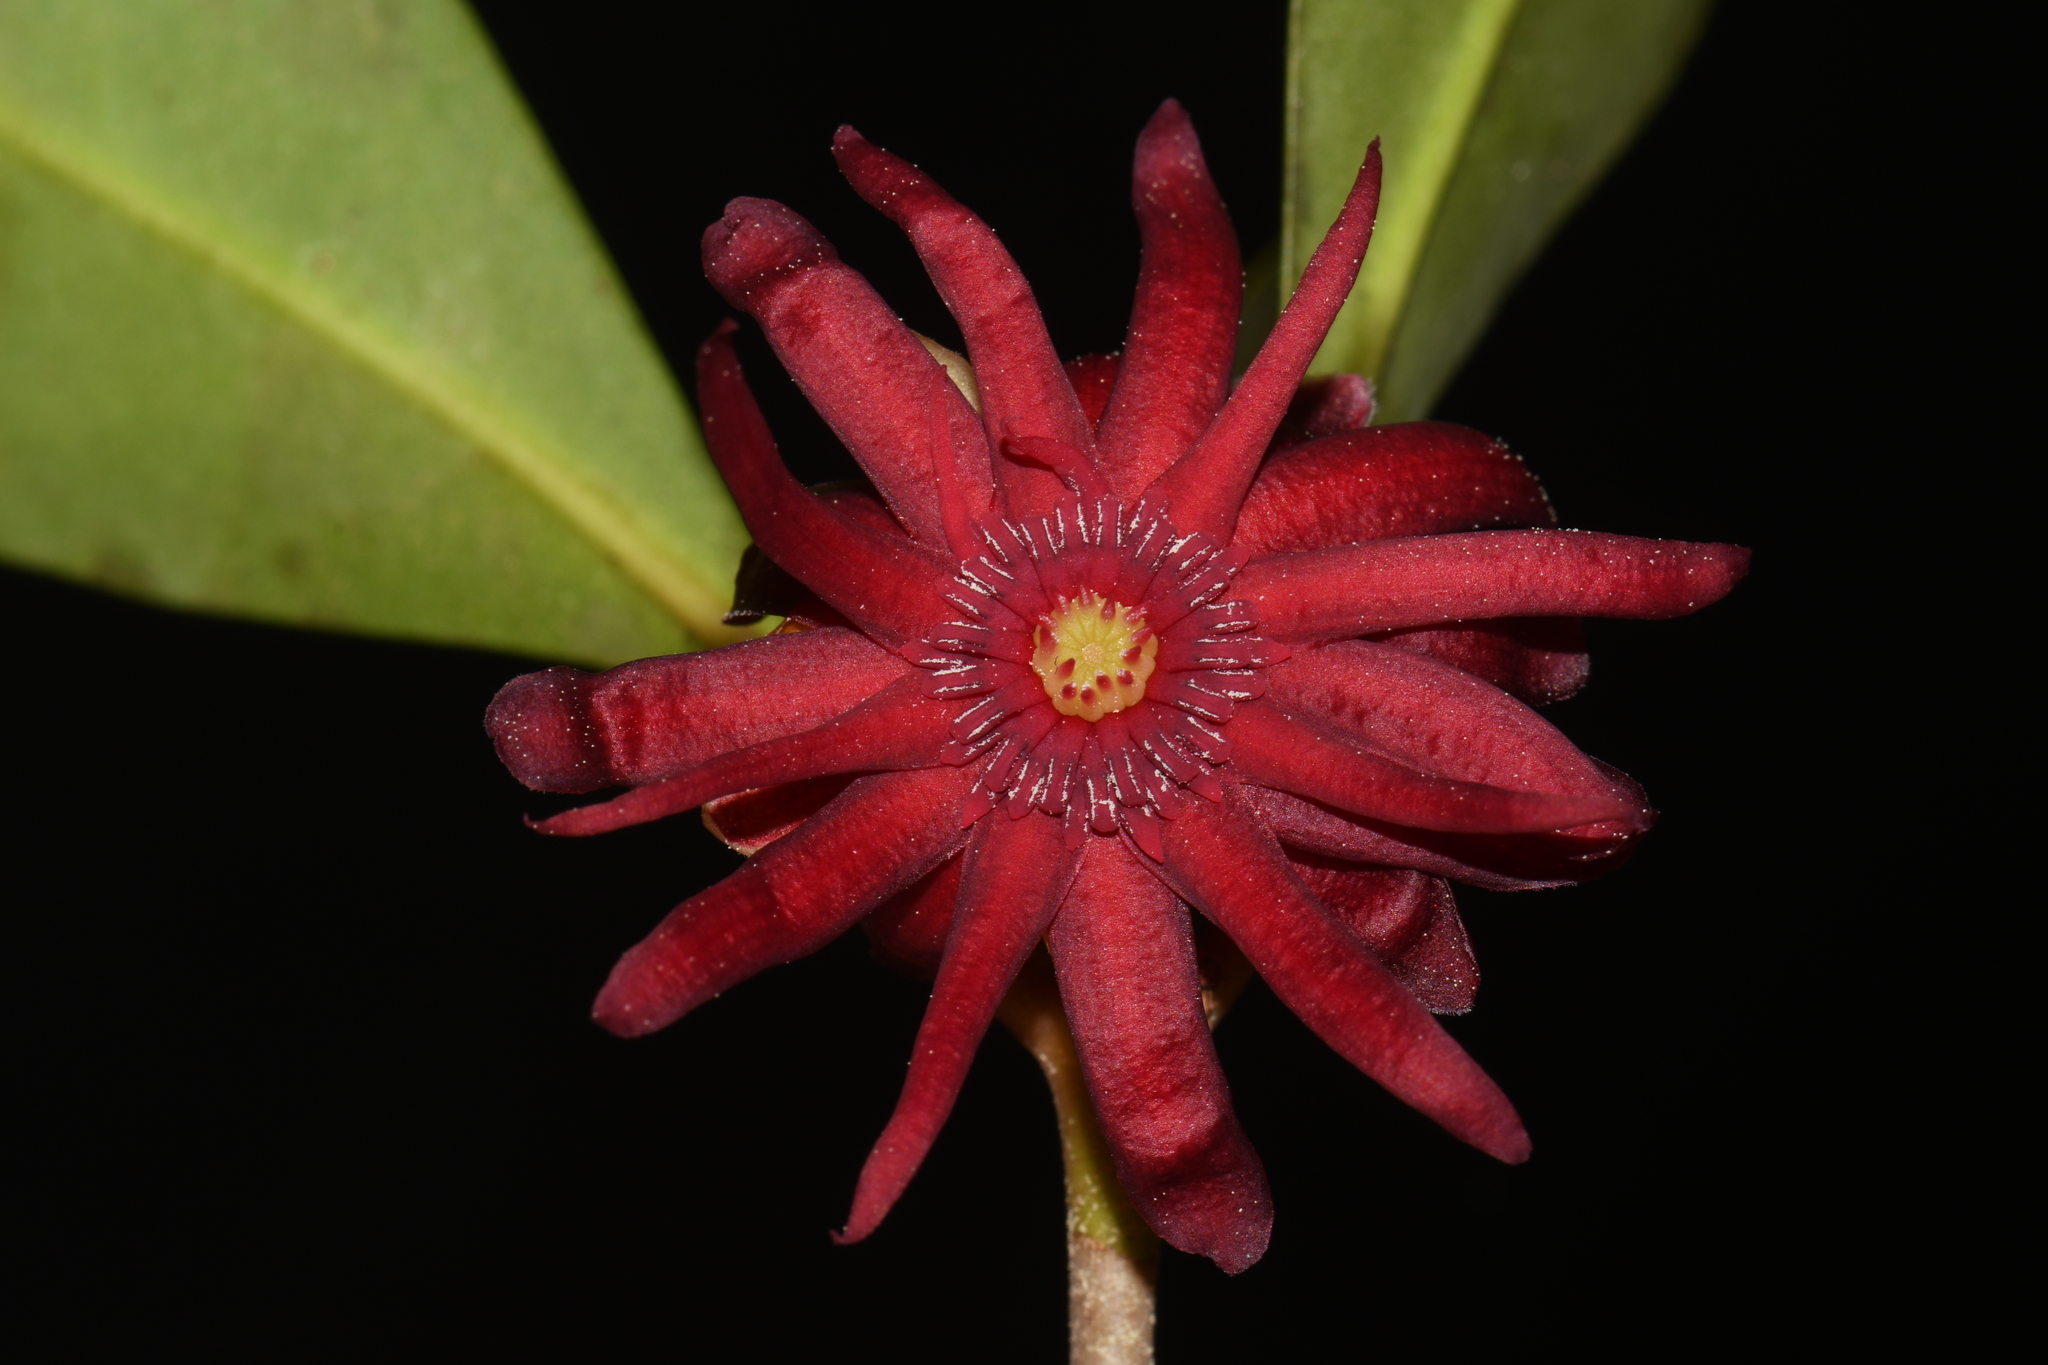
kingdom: Plantae
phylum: Tracheophyta
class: Magnoliopsida
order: Austrobaileyales
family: Schisandraceae
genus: Illicium
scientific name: Illicium floridanum
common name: Florida anisetree
